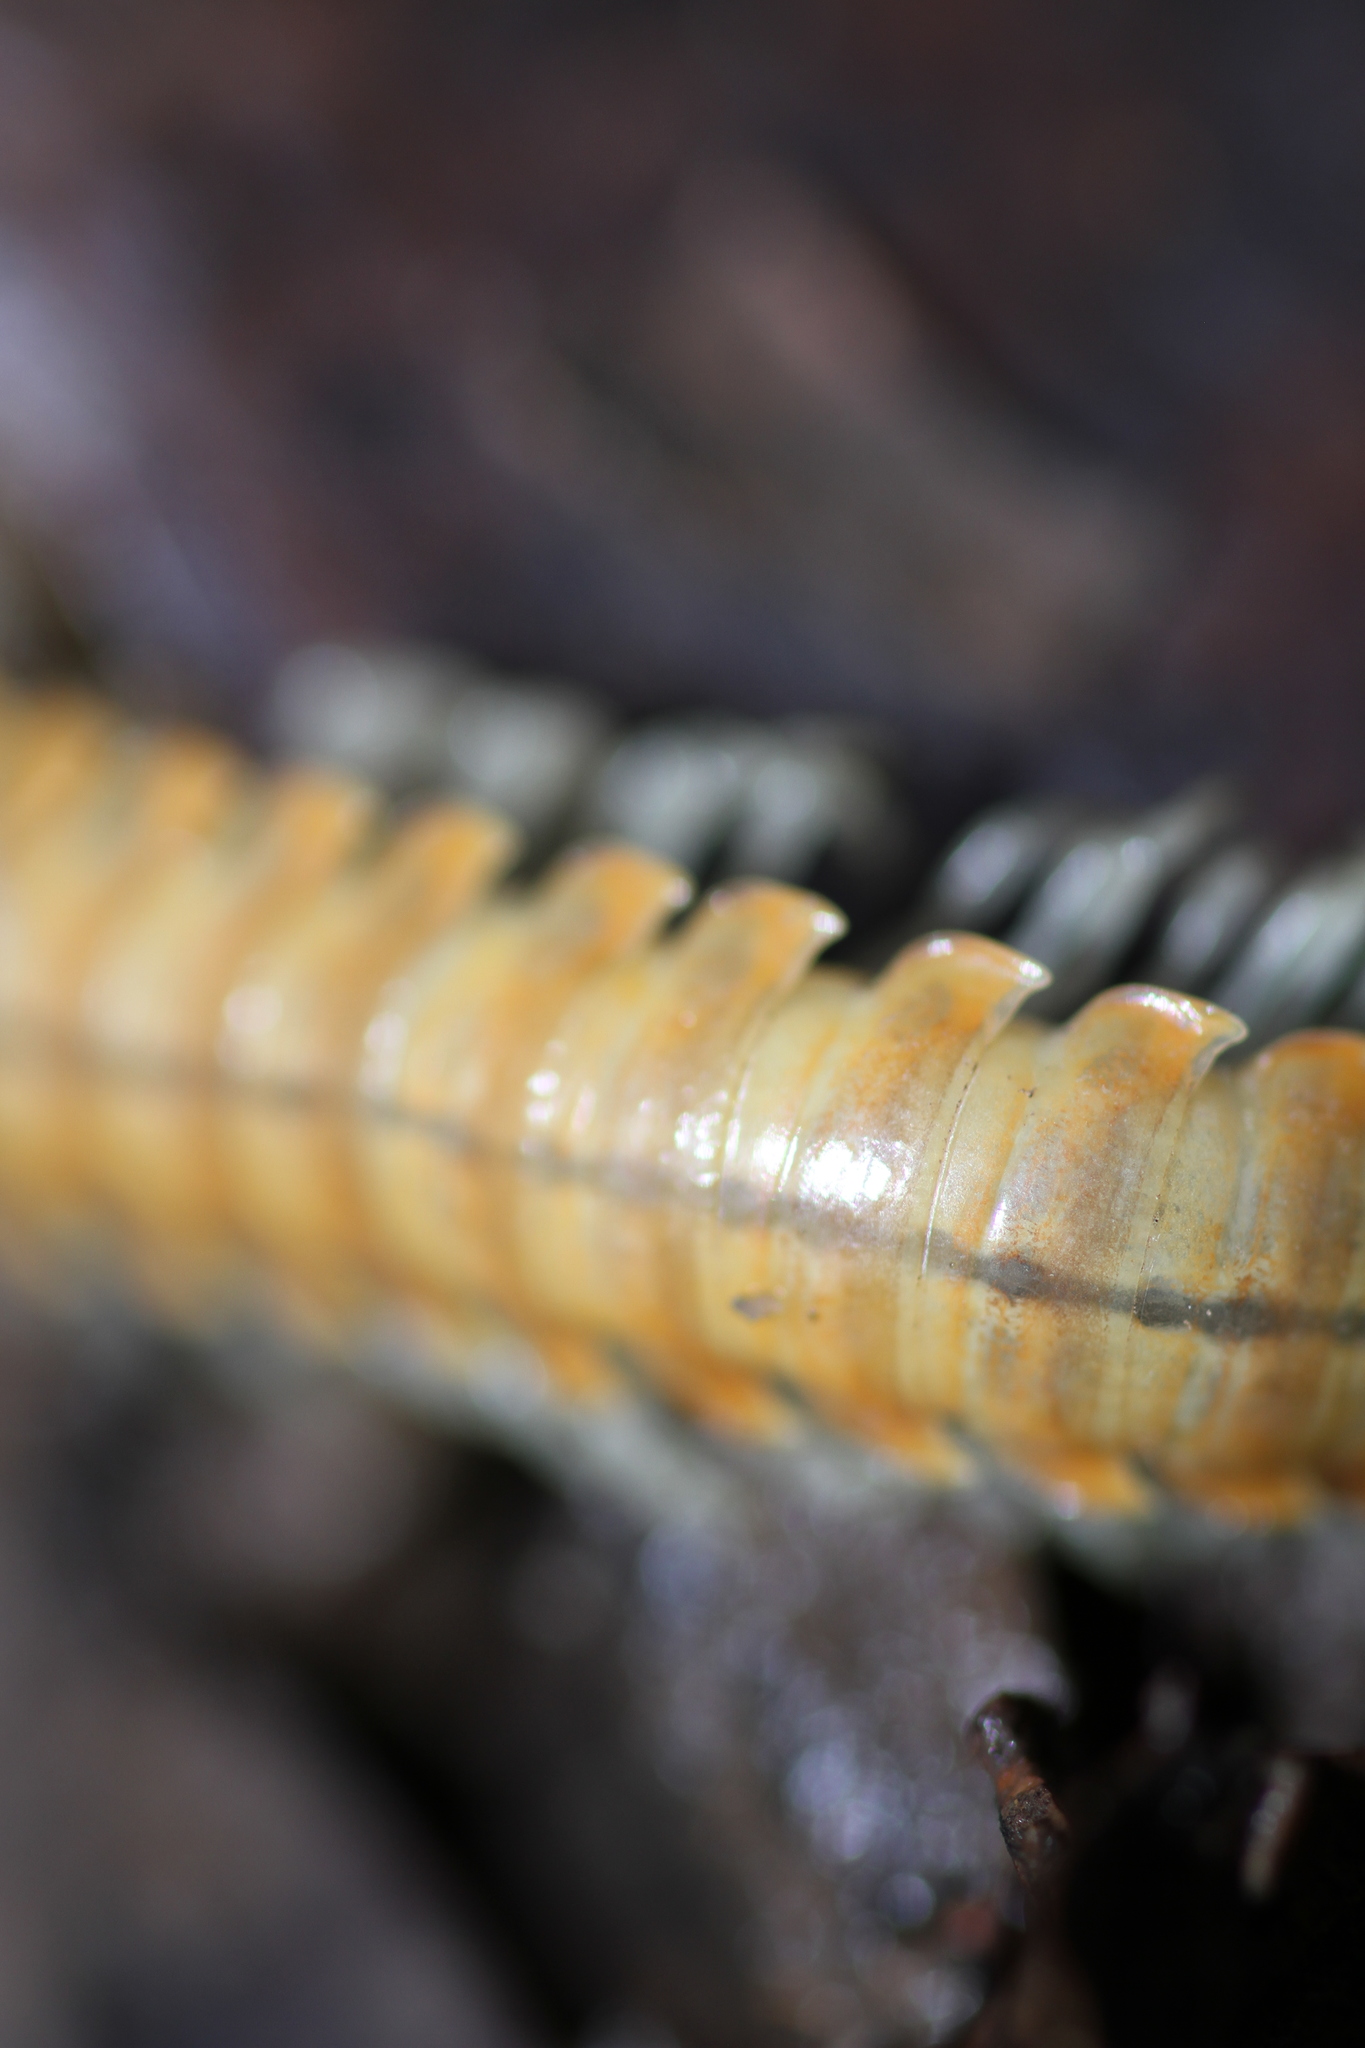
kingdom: Animalia
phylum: Arthropoda
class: Diplopoda
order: Polydesmida
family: Xystodesmidae
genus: Xystocheir
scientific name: Xystocheir dissecta
